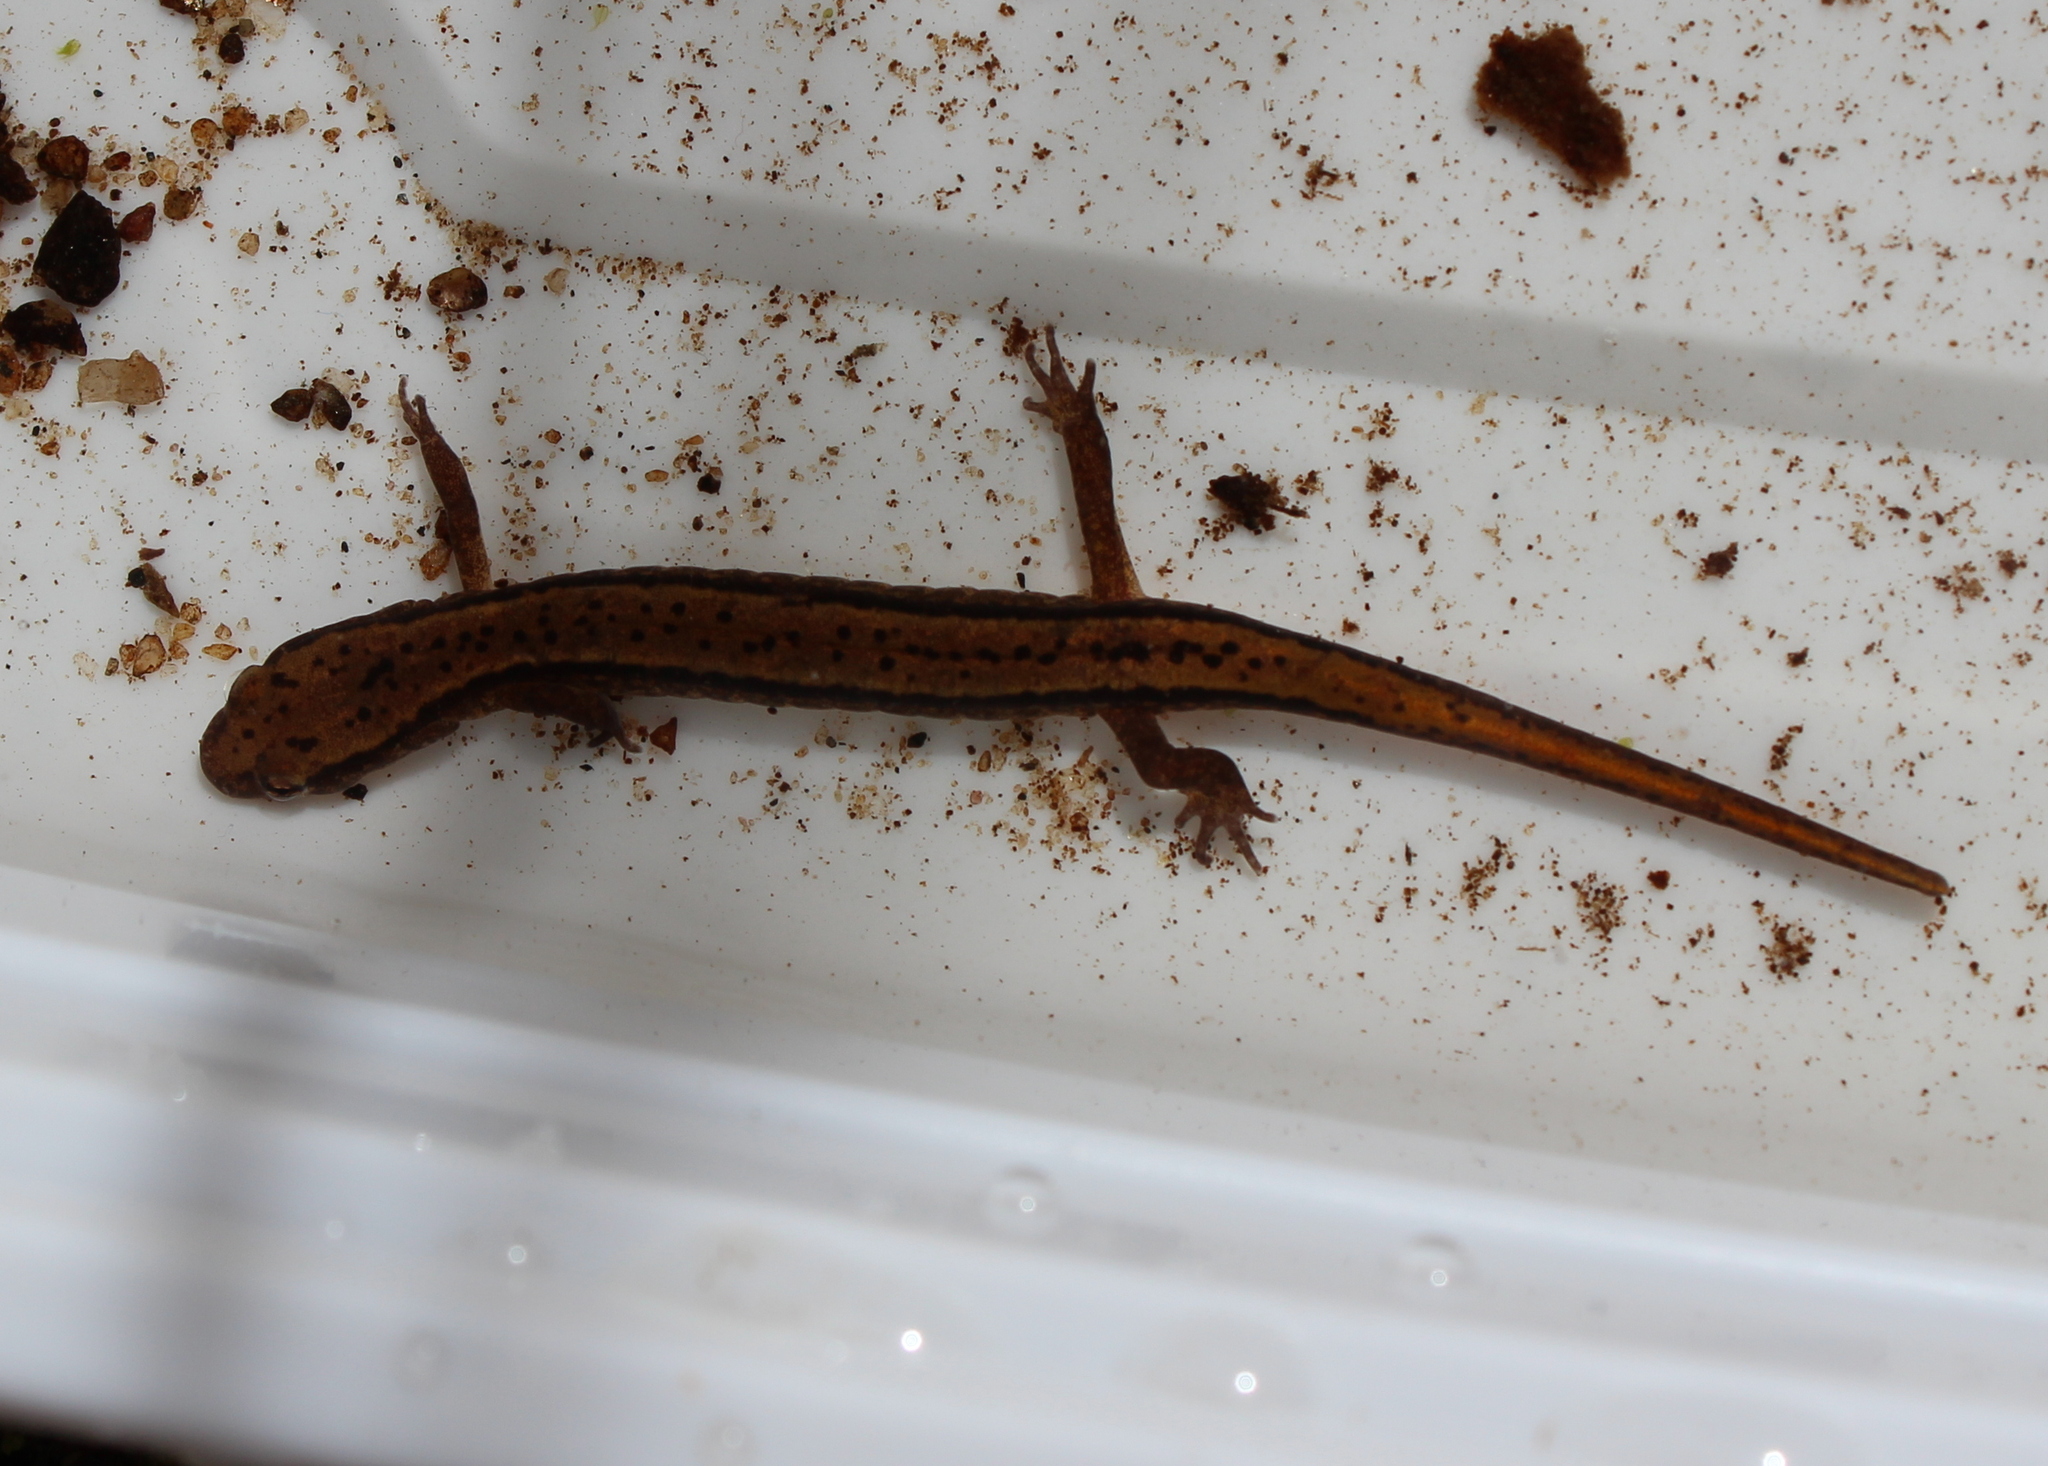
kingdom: Animalia
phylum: Chordata
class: Amphibia
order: Caudata
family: Plethodontidae
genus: Eurycea
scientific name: Eurycea bislineata
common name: Northern two-lined salamander
